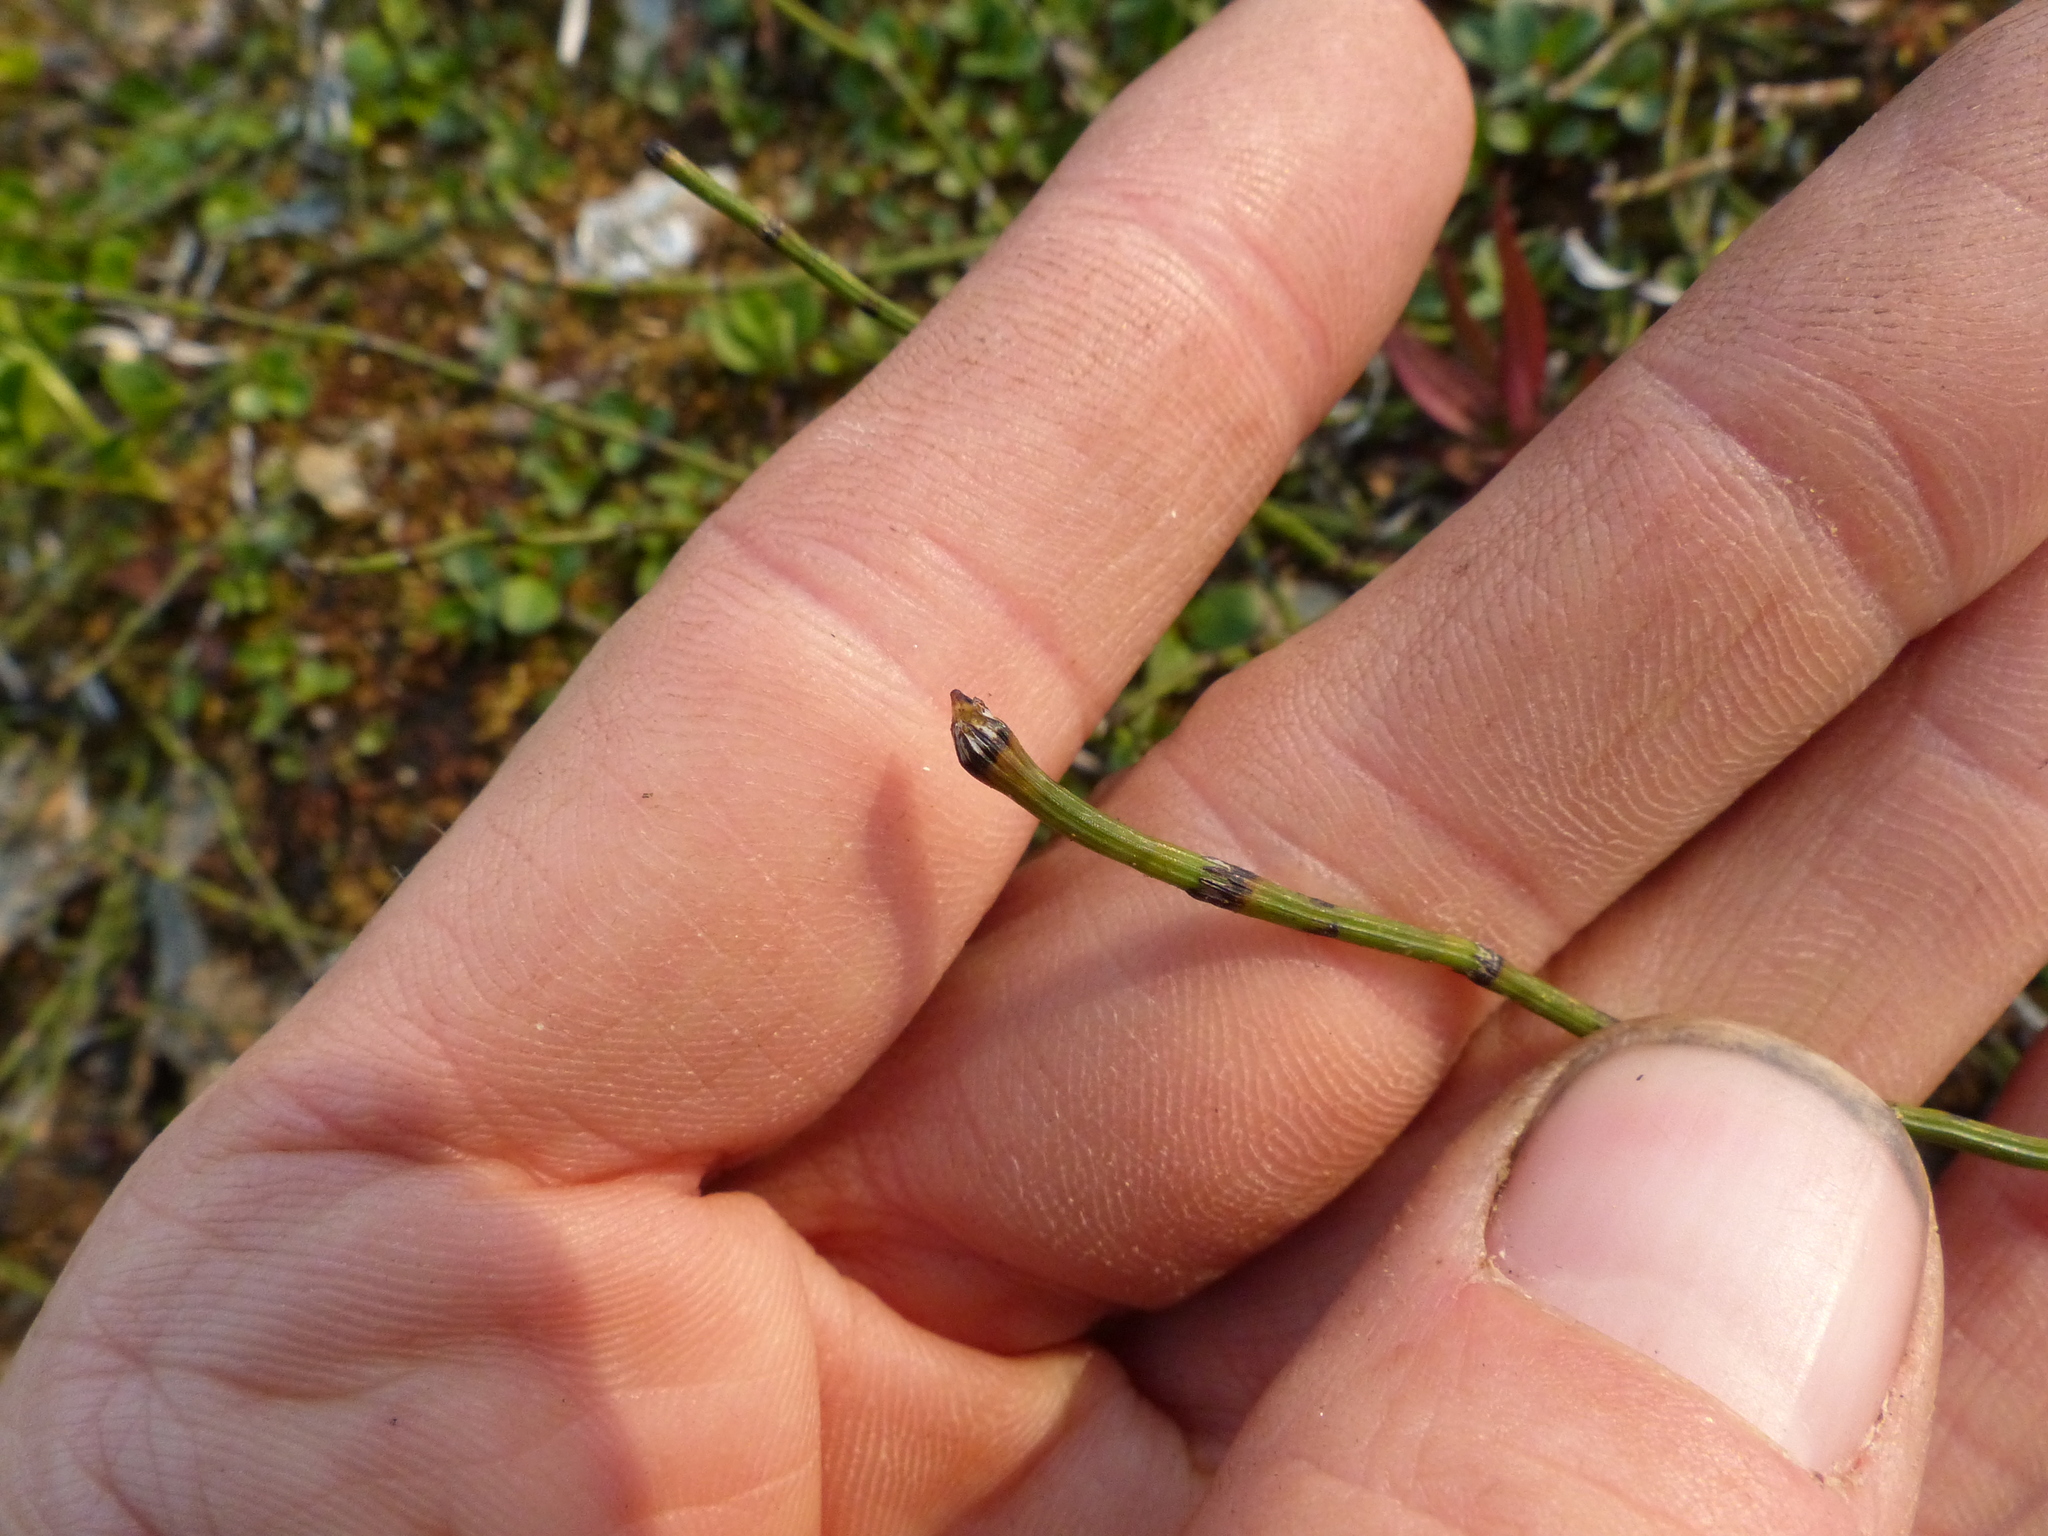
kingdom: Plantae
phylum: Tracheophyta
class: Polypodiopsida
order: Equisetales
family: Equisetaceae
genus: Equisetum
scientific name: Equisetum variegatum
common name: Variegated horsetail
